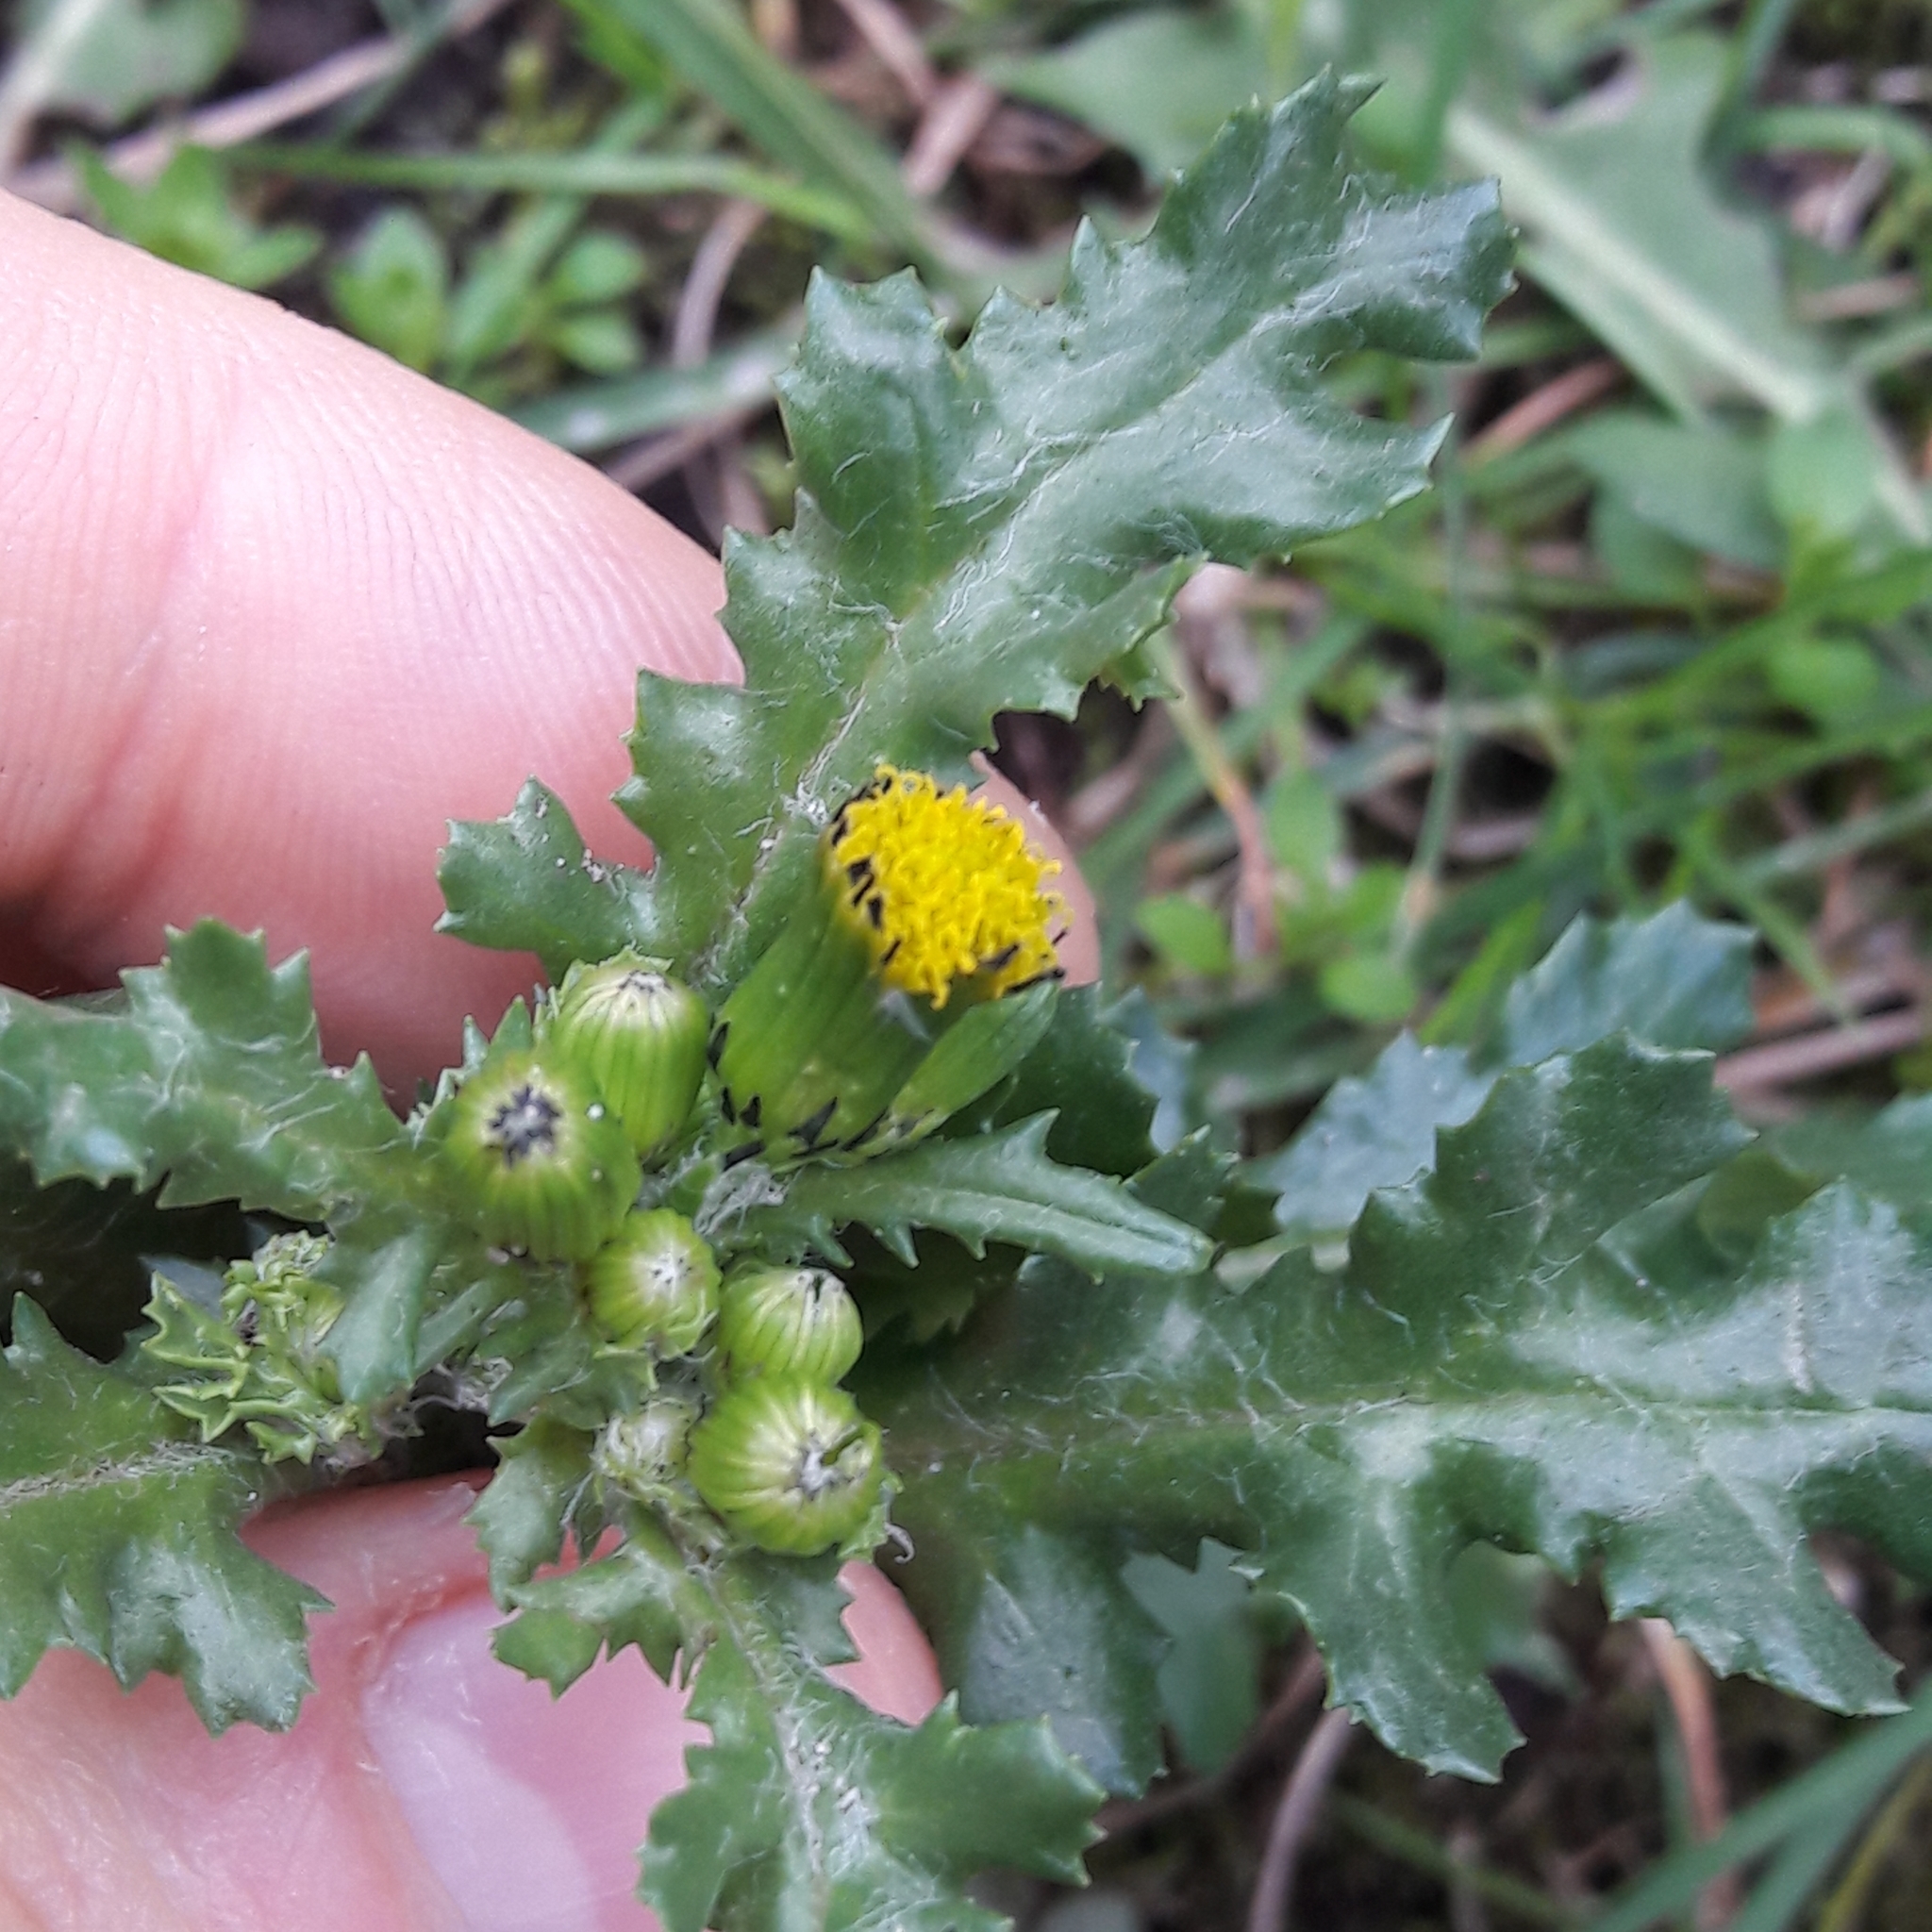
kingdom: Plantae
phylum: Tracheophyta
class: Magnoliopsida
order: Asterales
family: Asteraceae
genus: Senecio
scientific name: Senecio vulgaris
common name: Old-man-in-the-spring
